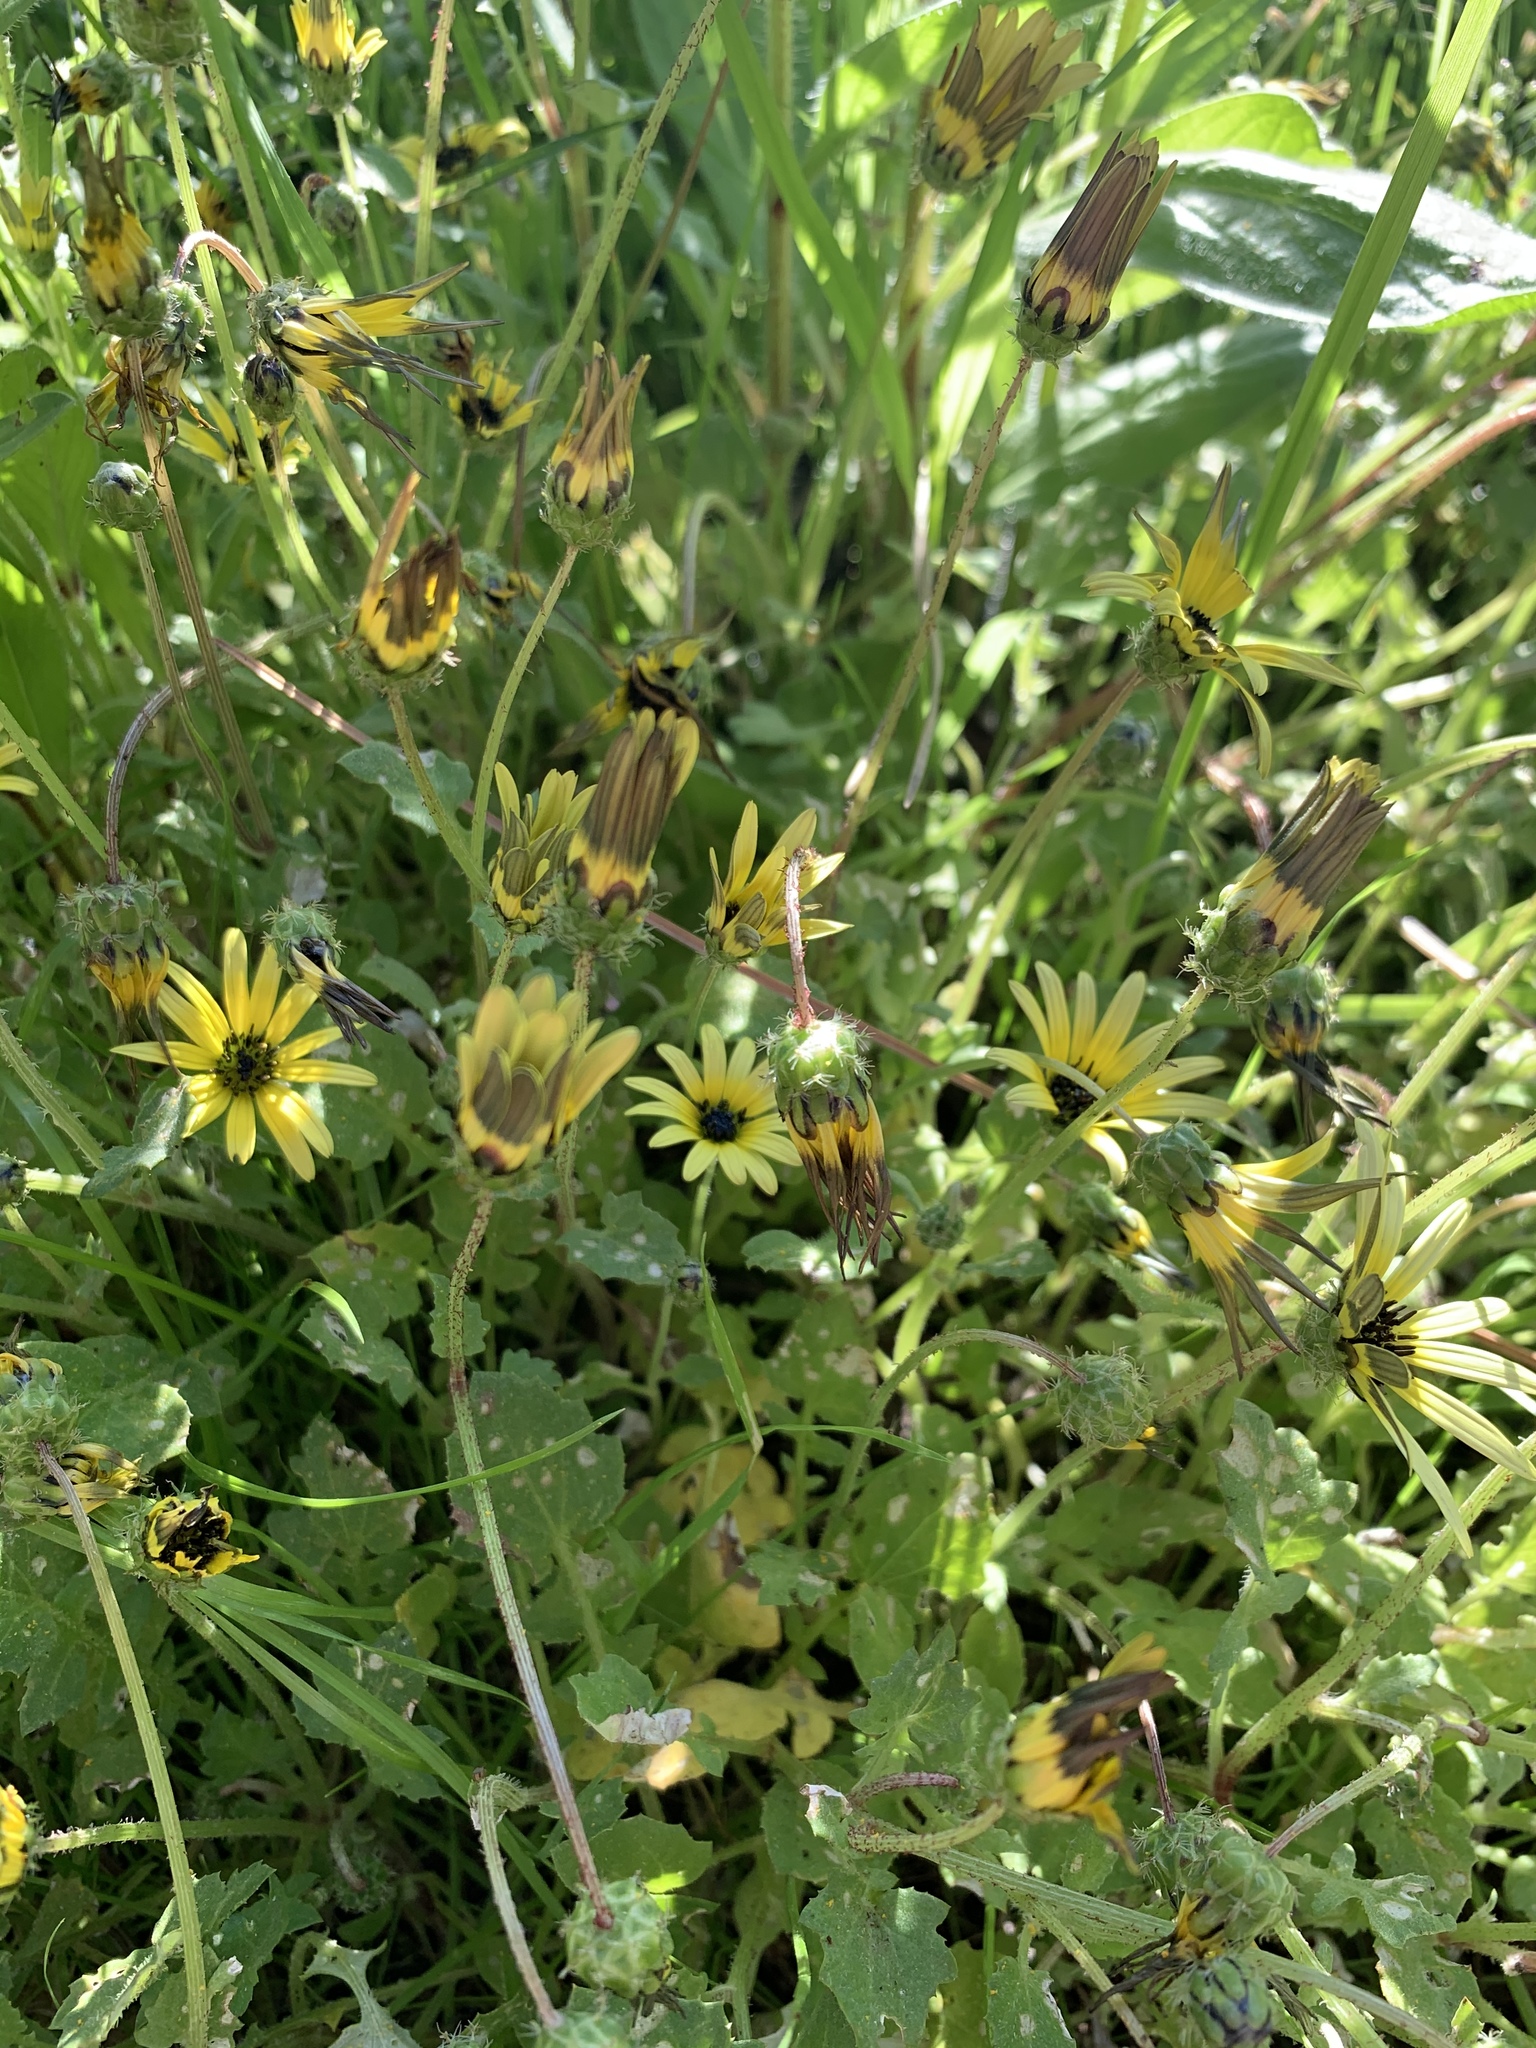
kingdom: Plantae
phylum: Tracheophyta
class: Magnoliopsida
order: Asterales
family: Asteraceae
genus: Arctotheca
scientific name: Arctotheca calendula
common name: Capeweed
